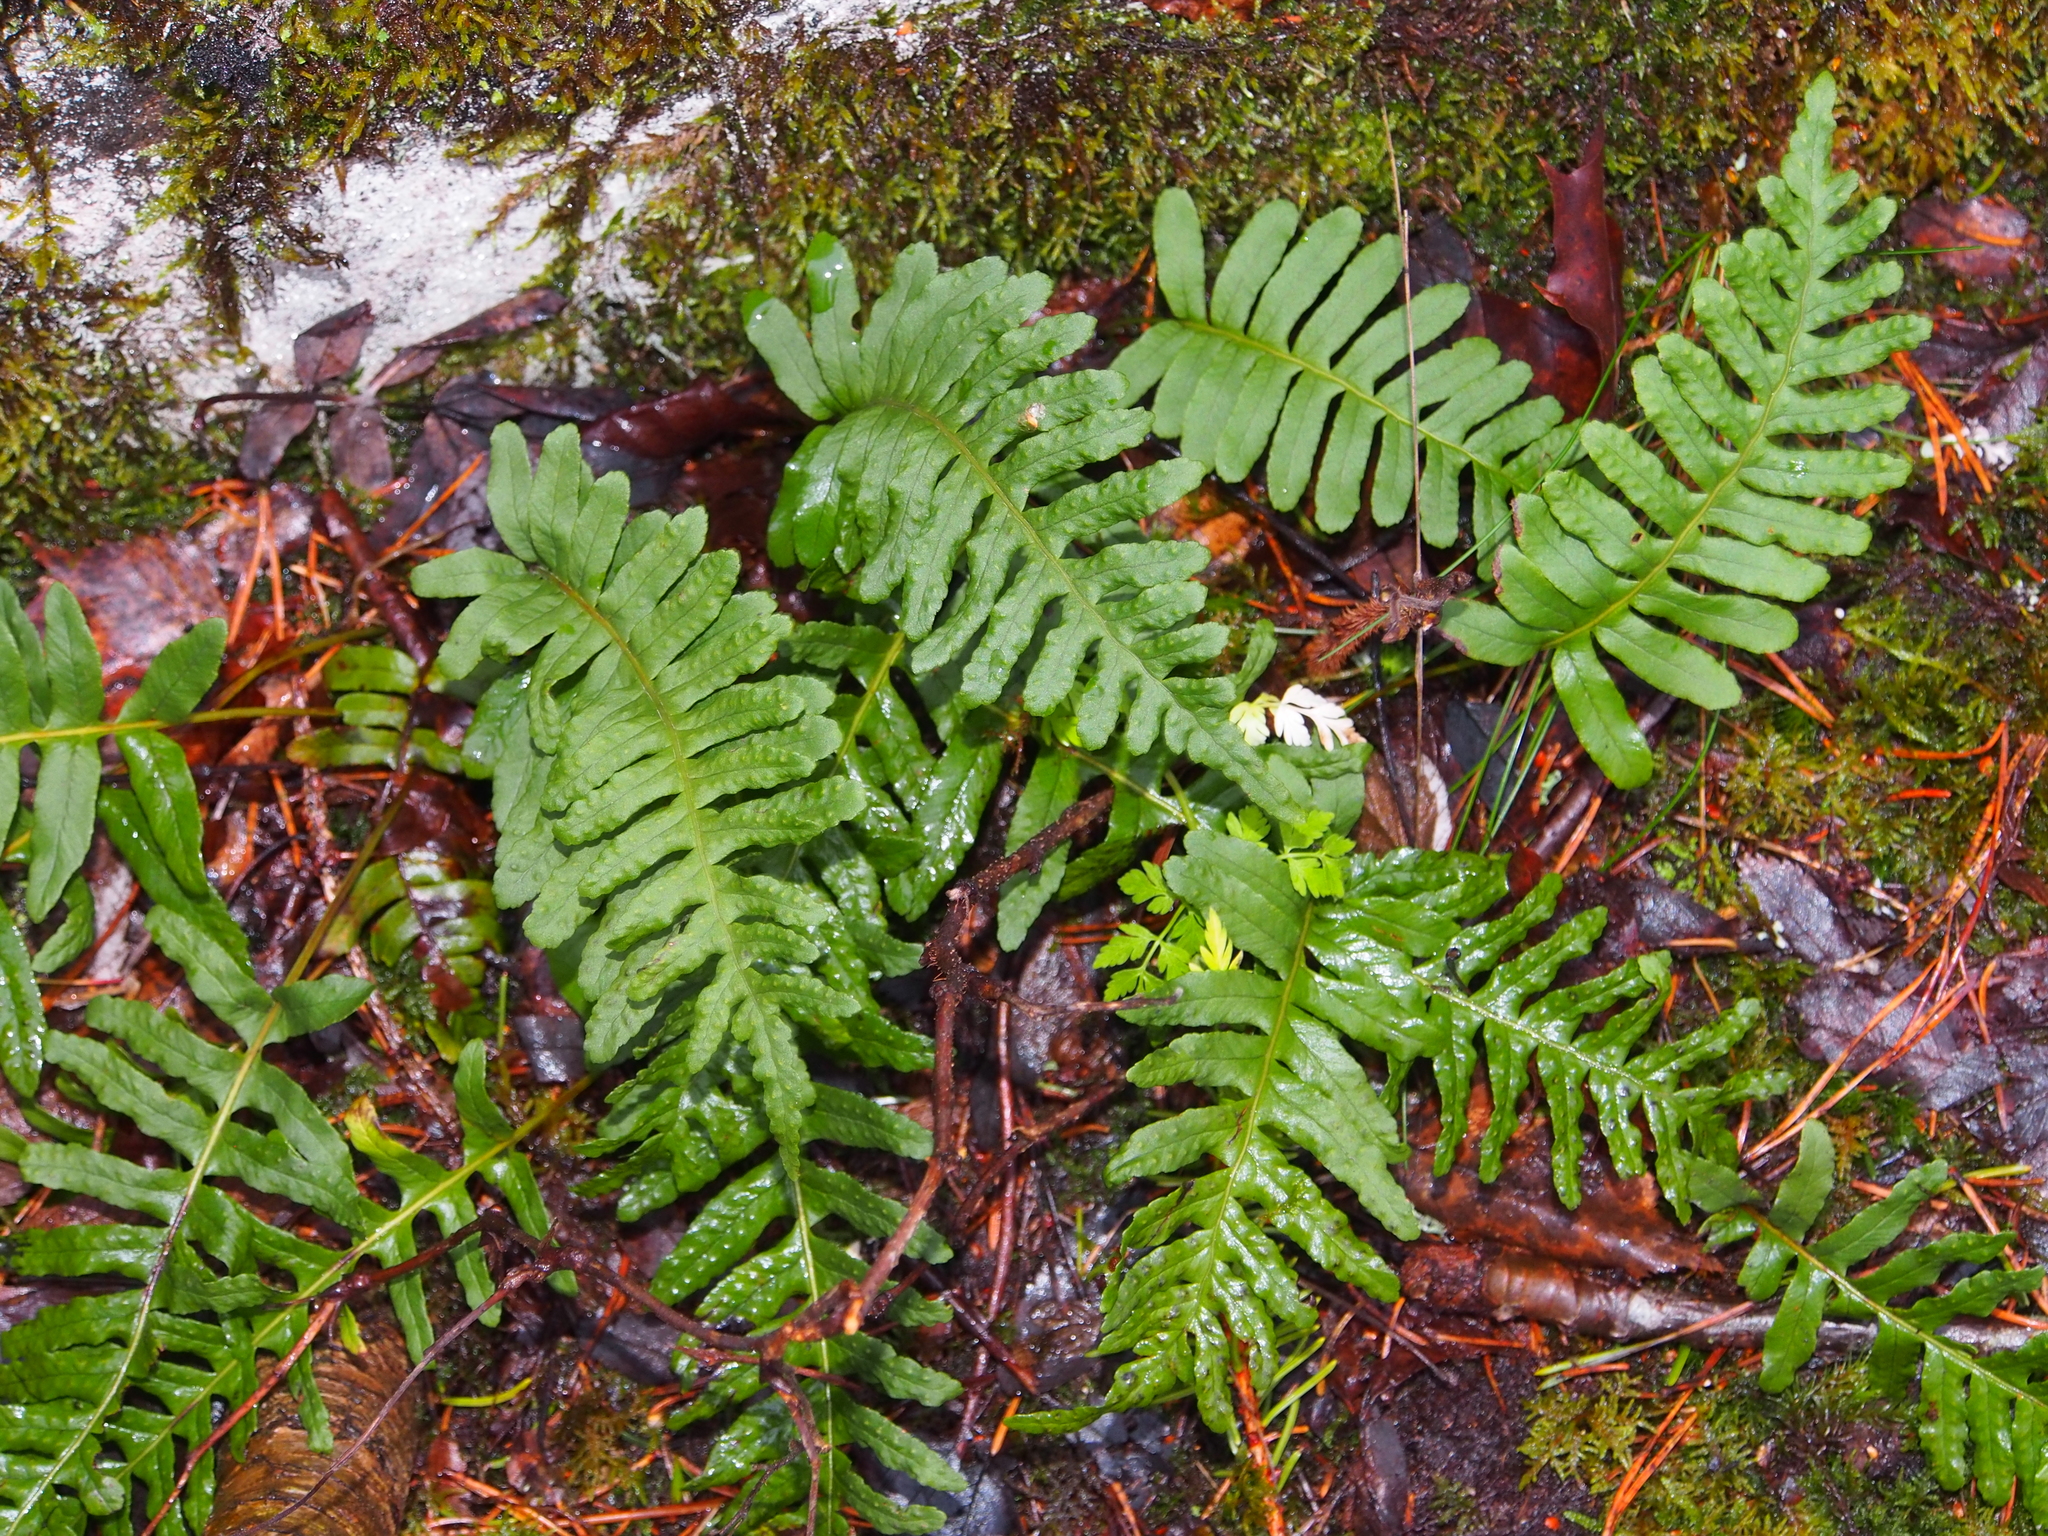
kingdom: Plantae
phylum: Tracheophyta
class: Polypodiopsida
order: Polypodiales
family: Polypodiaceae
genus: Polypodium
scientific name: Polypodium vulgare
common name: Common polypody
